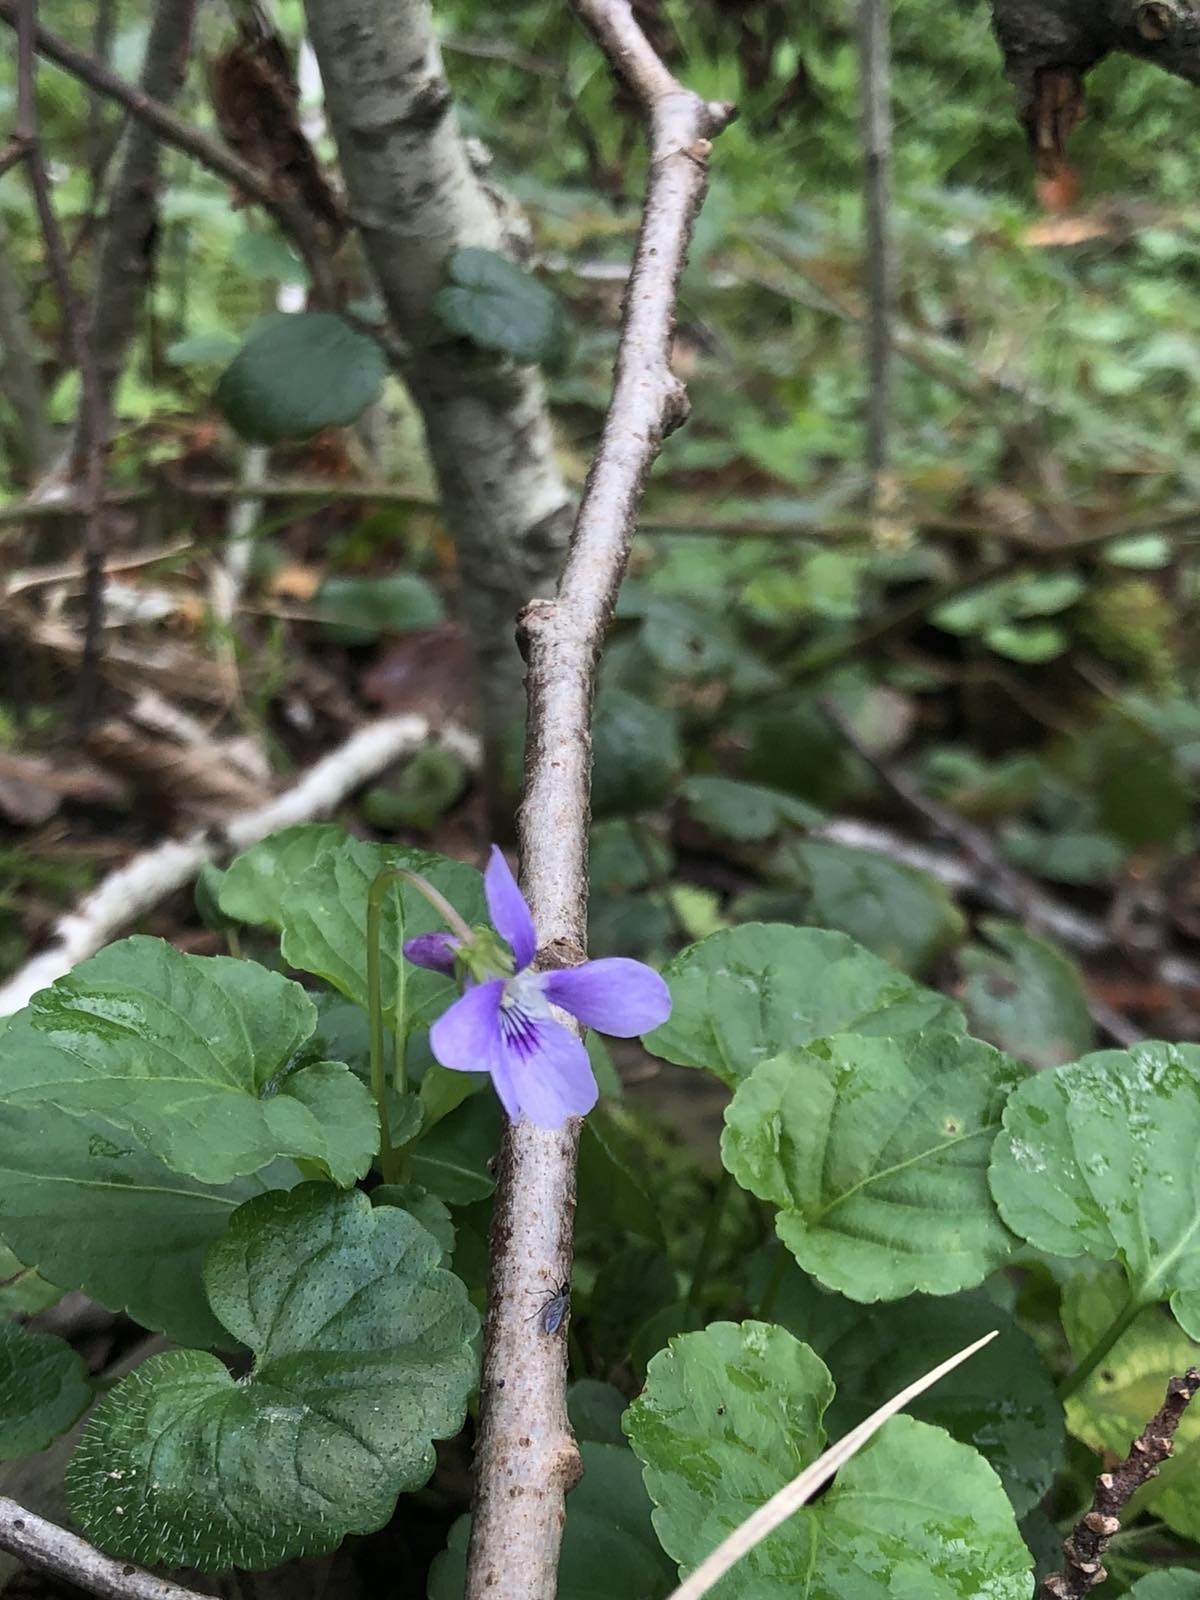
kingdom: Plantae
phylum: Tracheophyta
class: Magnoliopsida
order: Malpighiales
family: Violaceae
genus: Viola
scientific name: Viola reichenbachiana
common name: Early dog-violet
